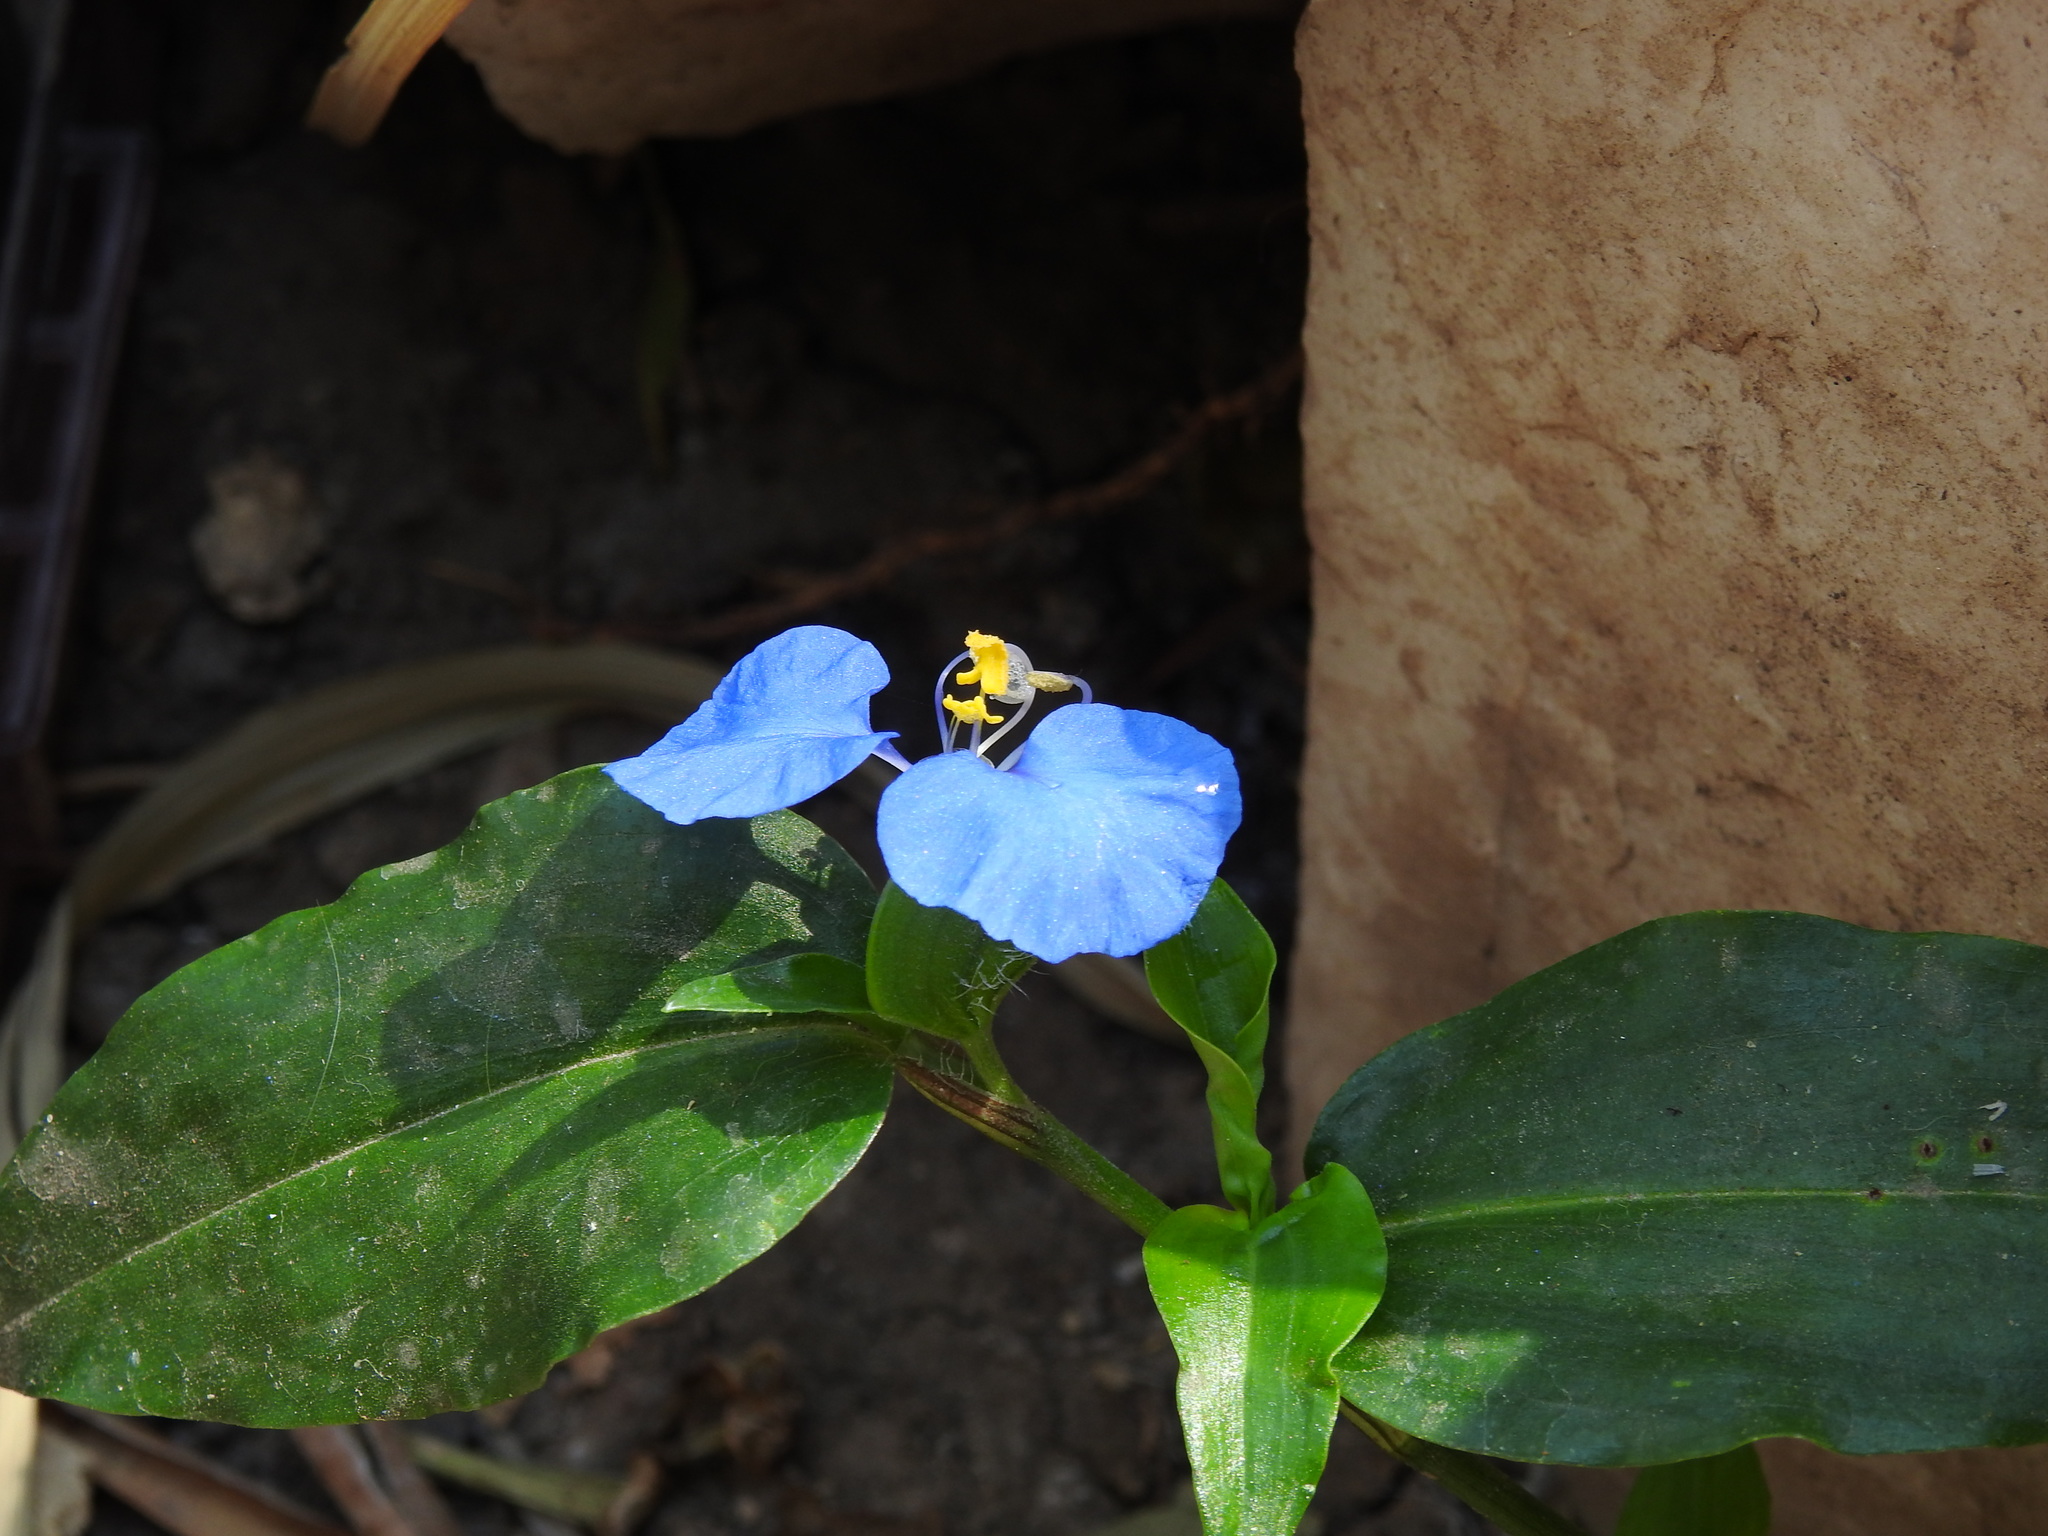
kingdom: Plantae
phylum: Tracheophyta
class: Liliopsida
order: Commelinales
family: Commelinaceae
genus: Commelina
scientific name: Commelina erecta
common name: Blousel blommetjie
